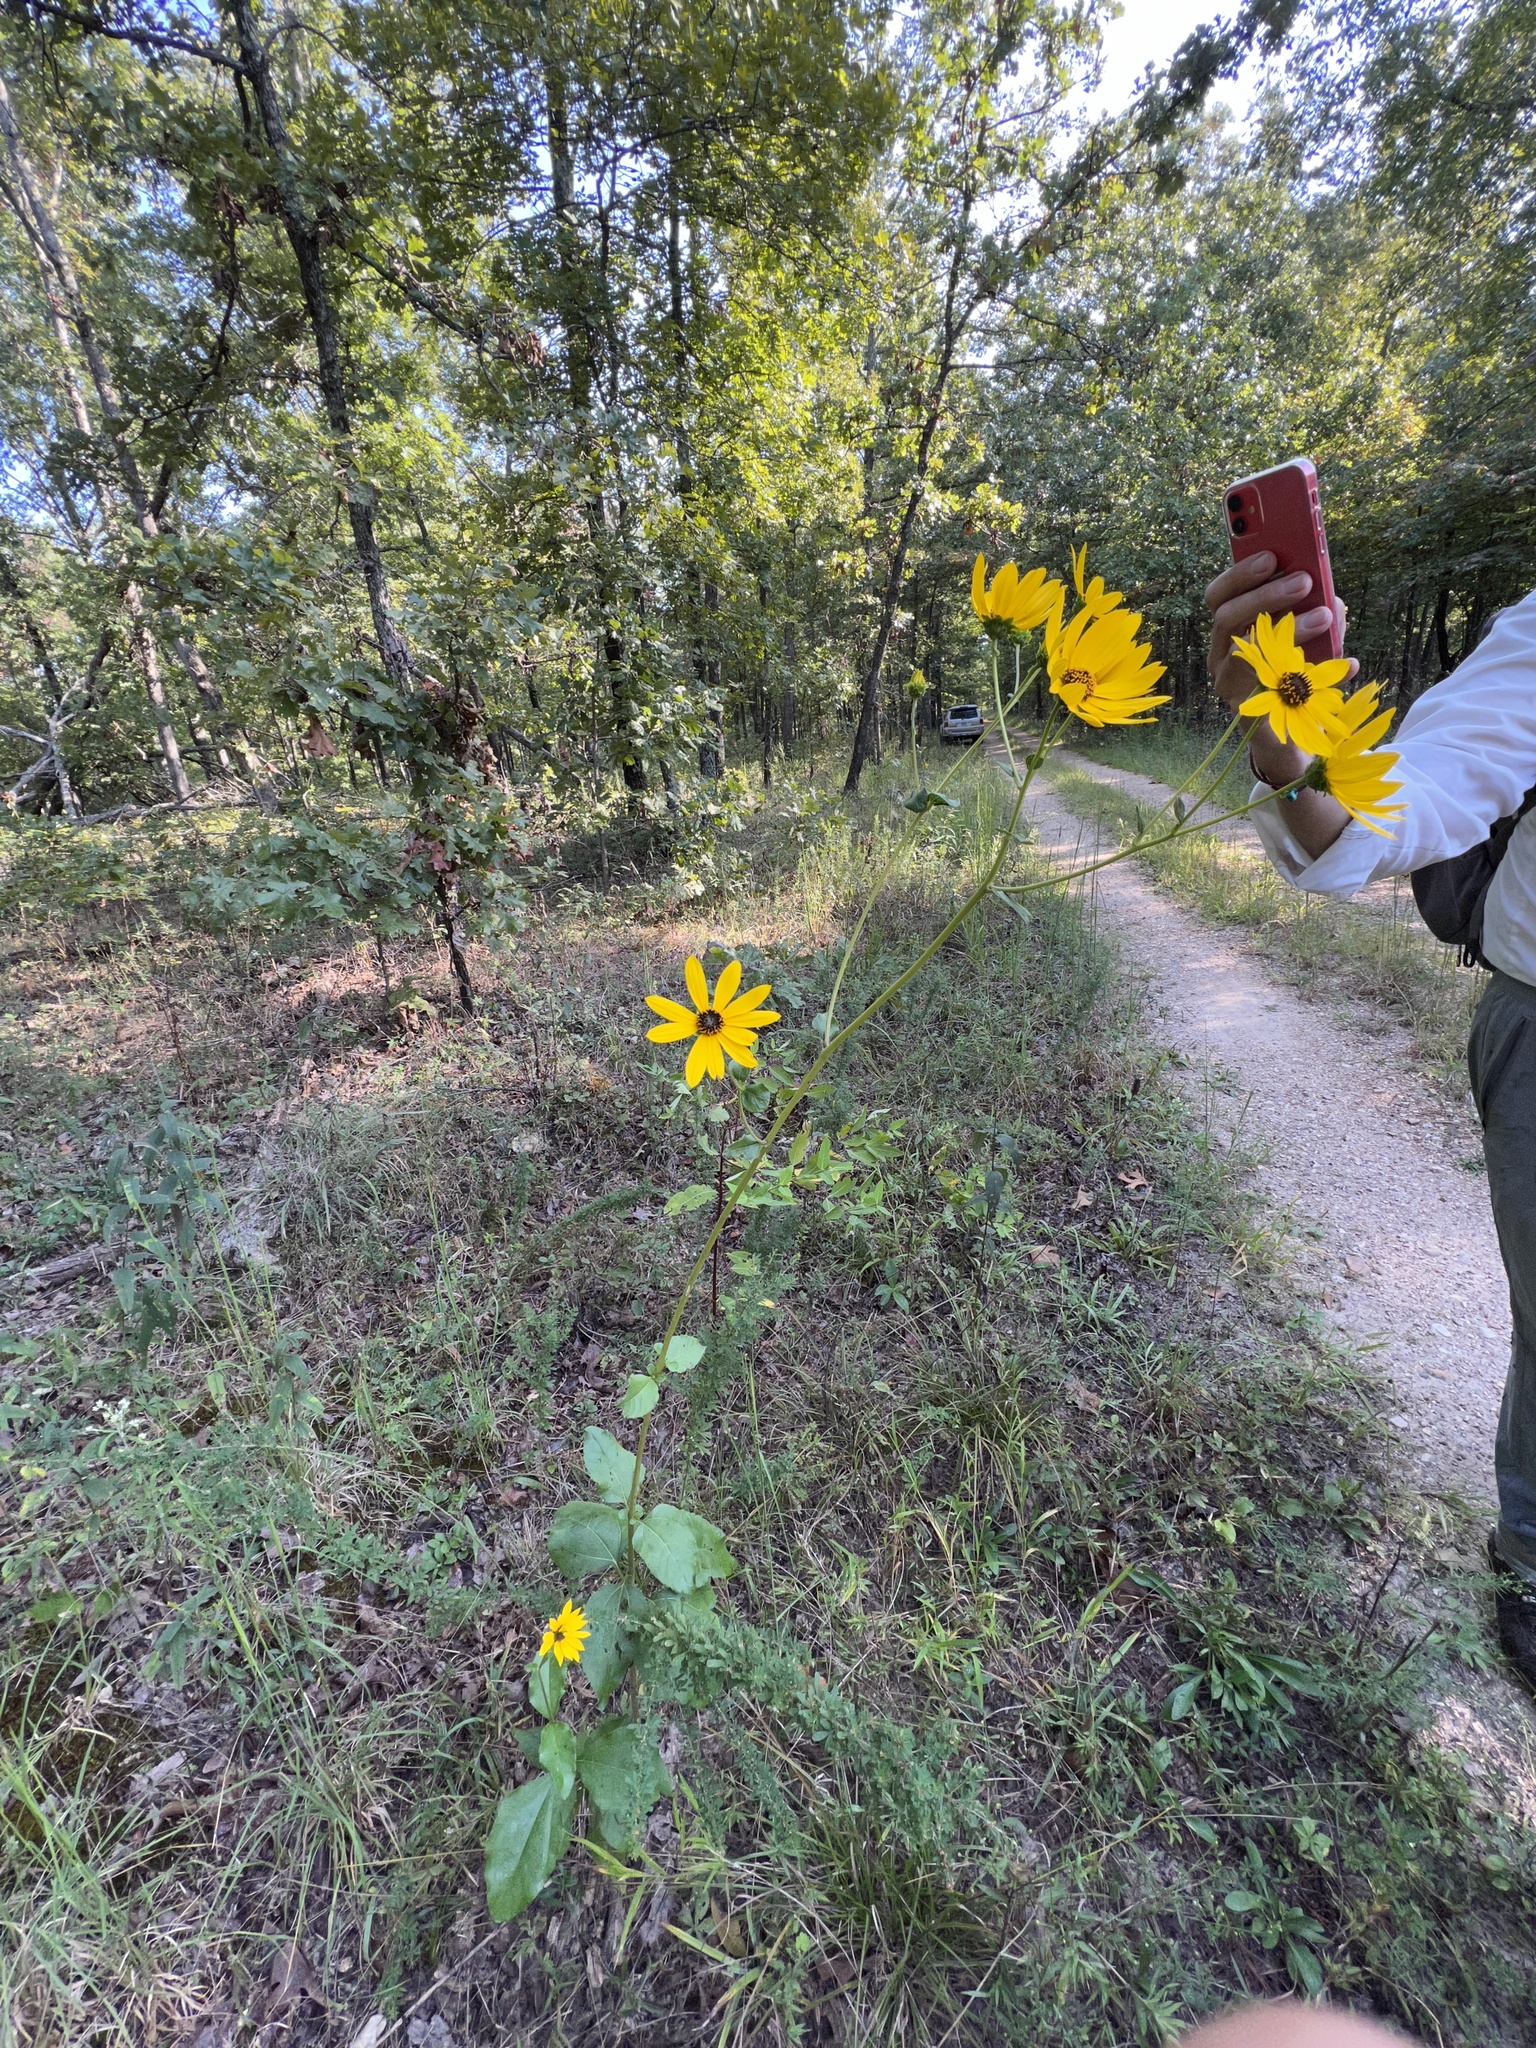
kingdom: Plantae
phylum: Tracheophyta
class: Magnoliopsida
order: Asterales
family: Asteraceae
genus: Helianthus
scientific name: Helianthus silphioides
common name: Odorous sunflower
